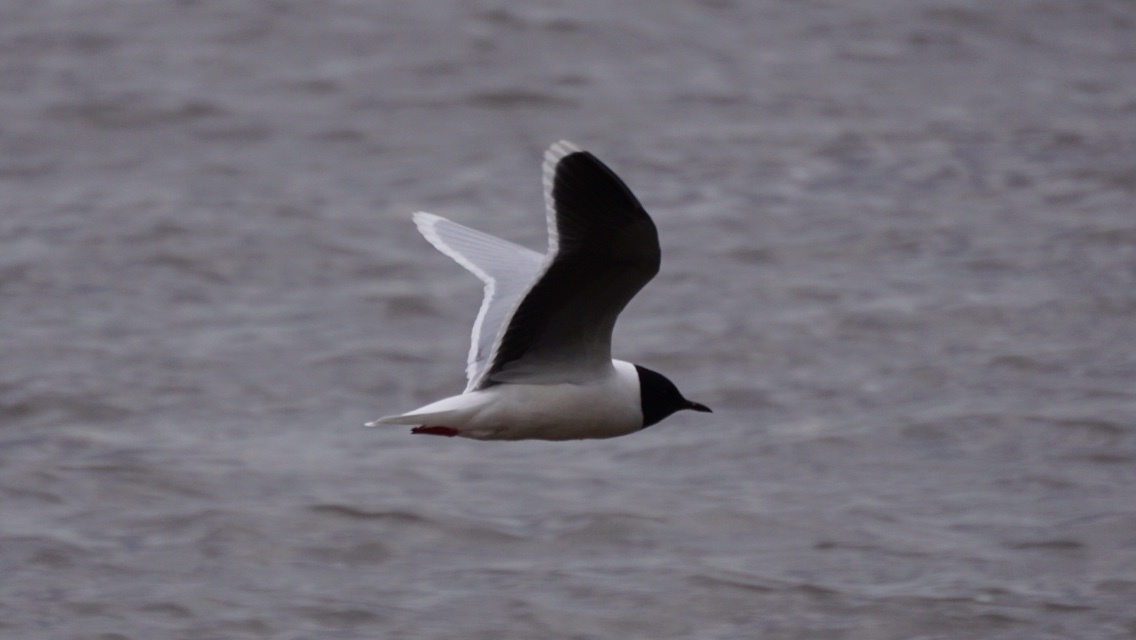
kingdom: Animalia
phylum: Chordata
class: Aves
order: Charadriiformes
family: Laridae
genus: Hydrocoloeus
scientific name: Hydrocoloeus minutus
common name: Little gull
